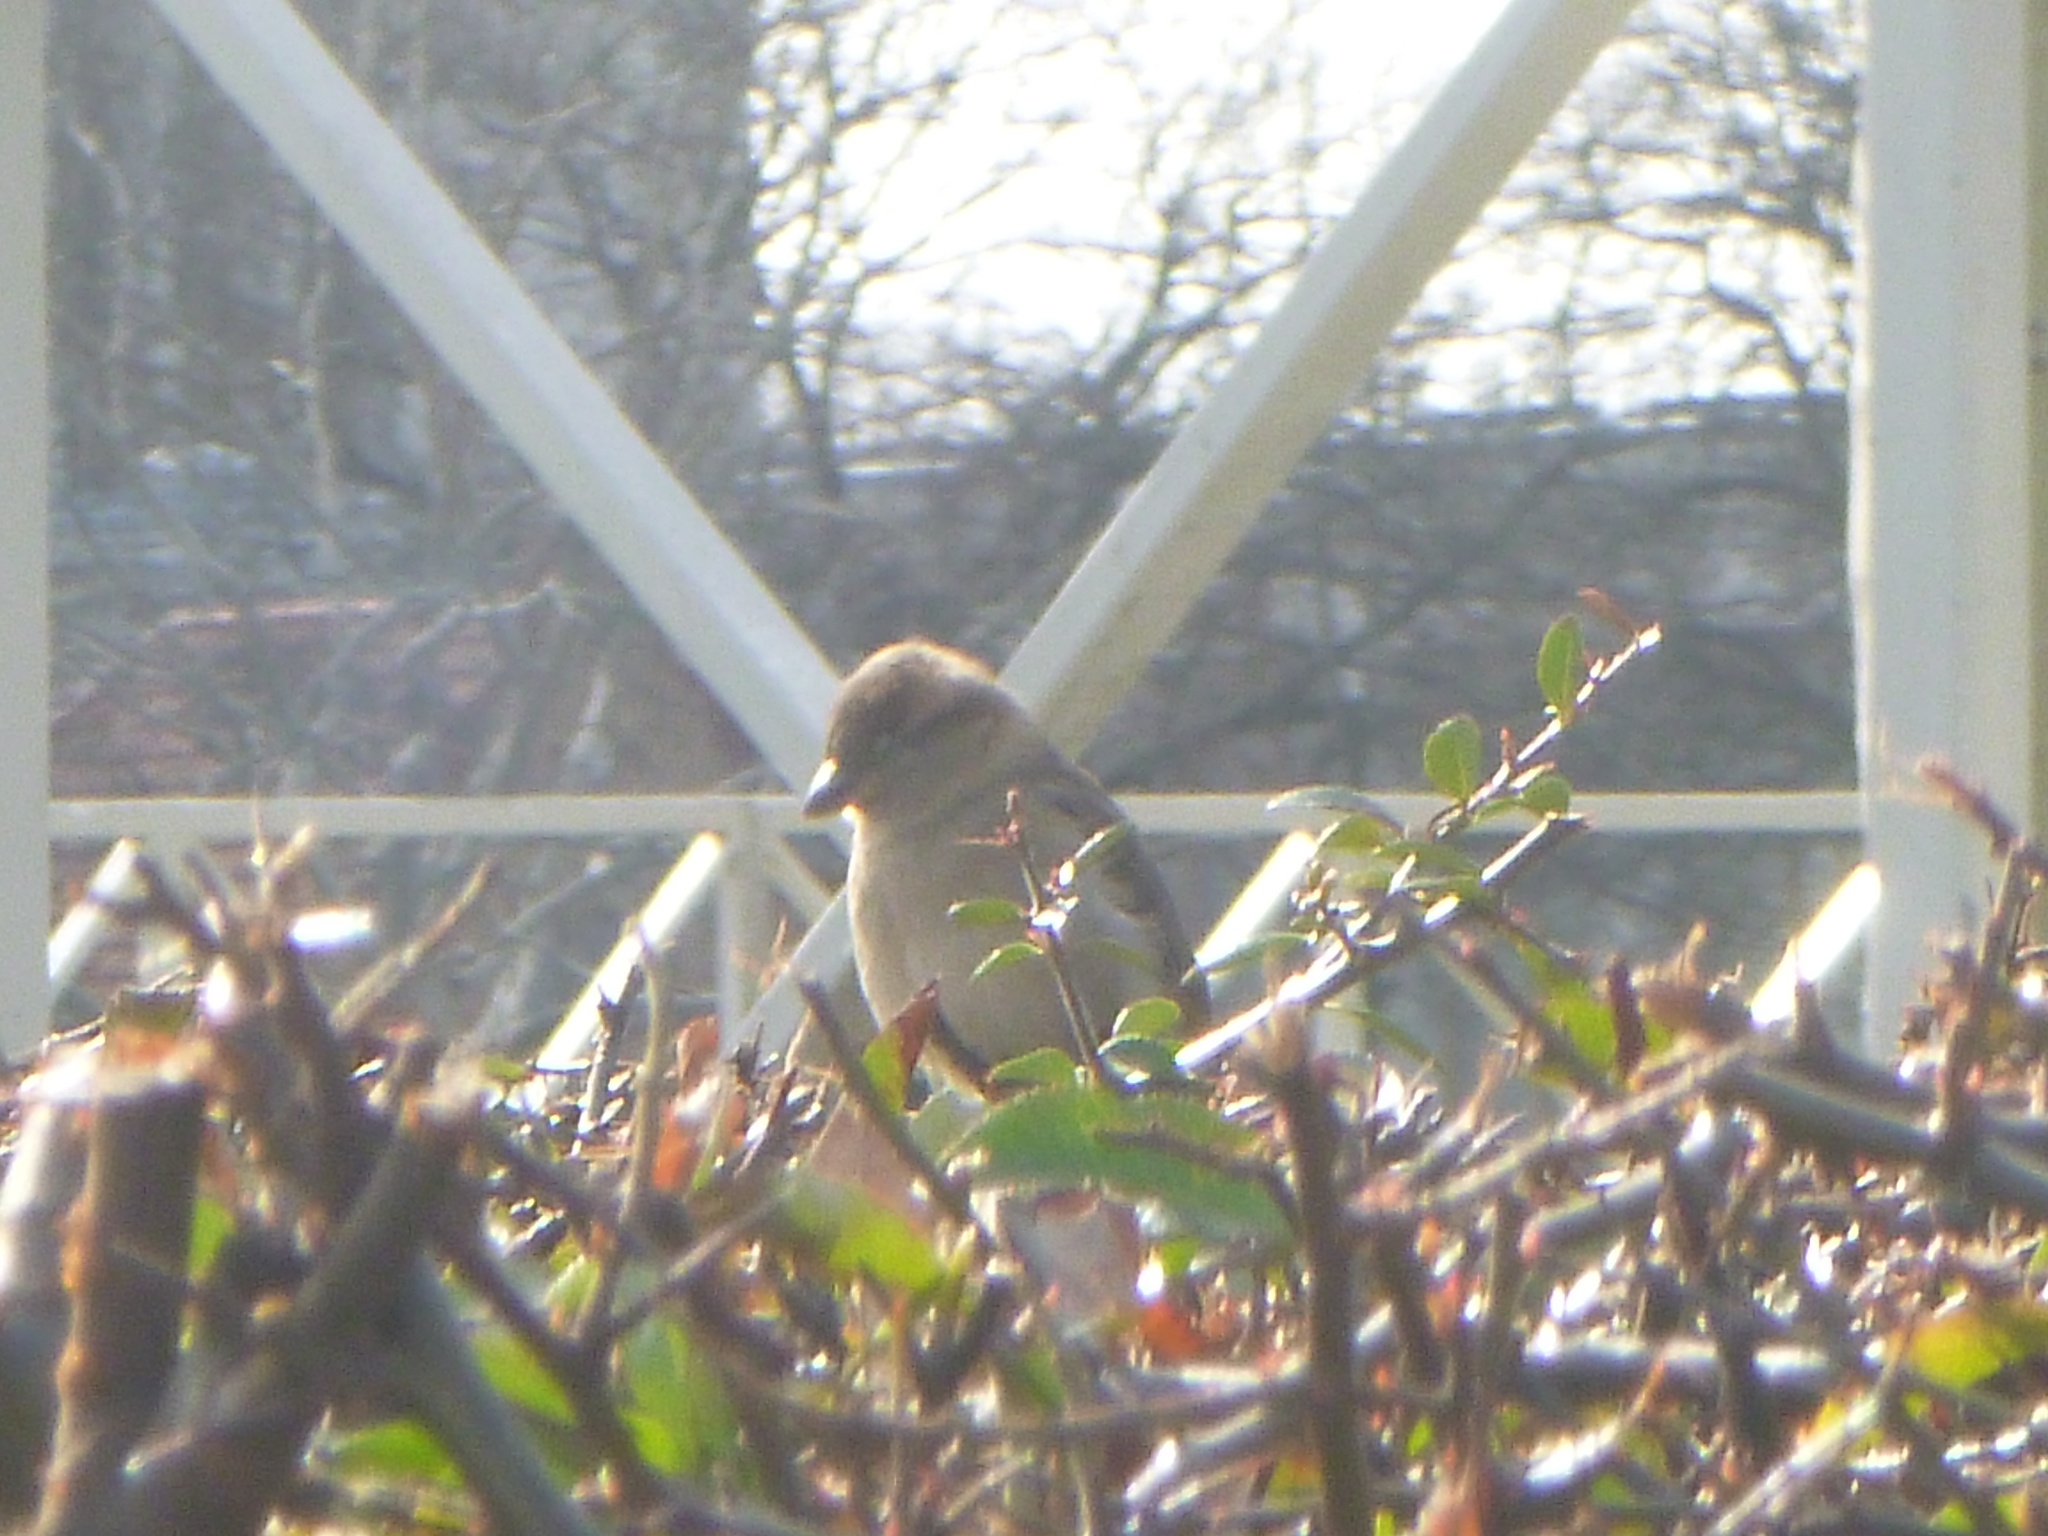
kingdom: Animalia
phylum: Chordata
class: Aves
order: Passeriformes
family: Passeridae
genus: Passer
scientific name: Passer domesticus
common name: House sparrow
